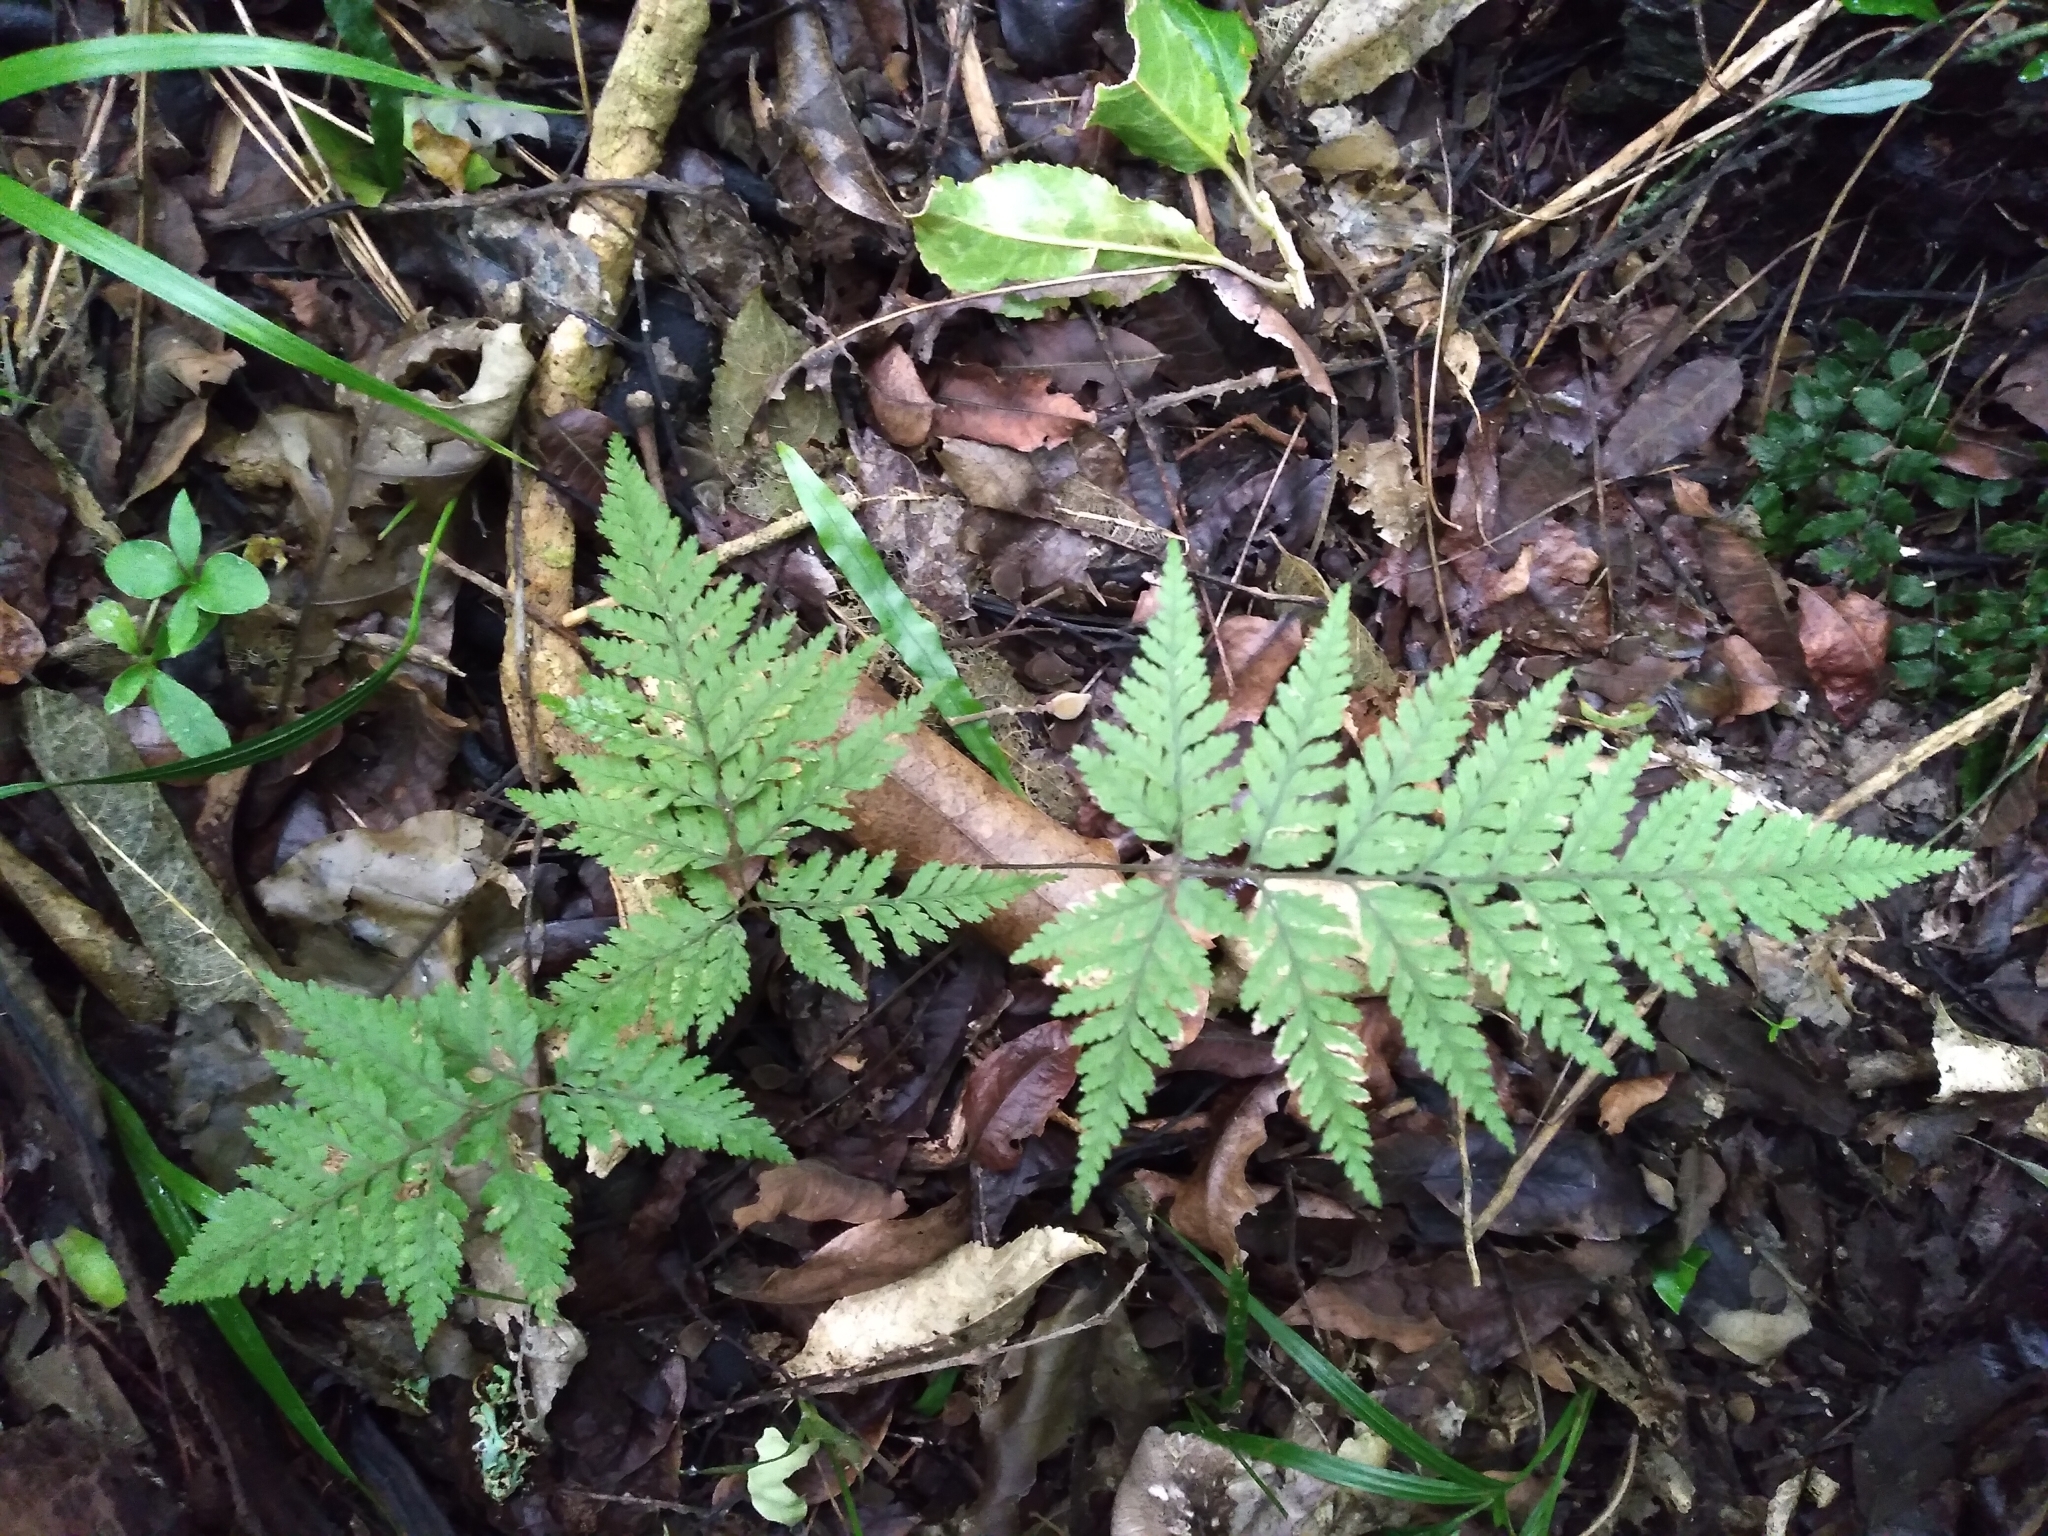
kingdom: Plantae
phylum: Tracheophyta
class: Polypodiopsida
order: Polypodiales
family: Dryopteridaceae
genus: Parapolystichum
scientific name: Parapolystichum microsorum
